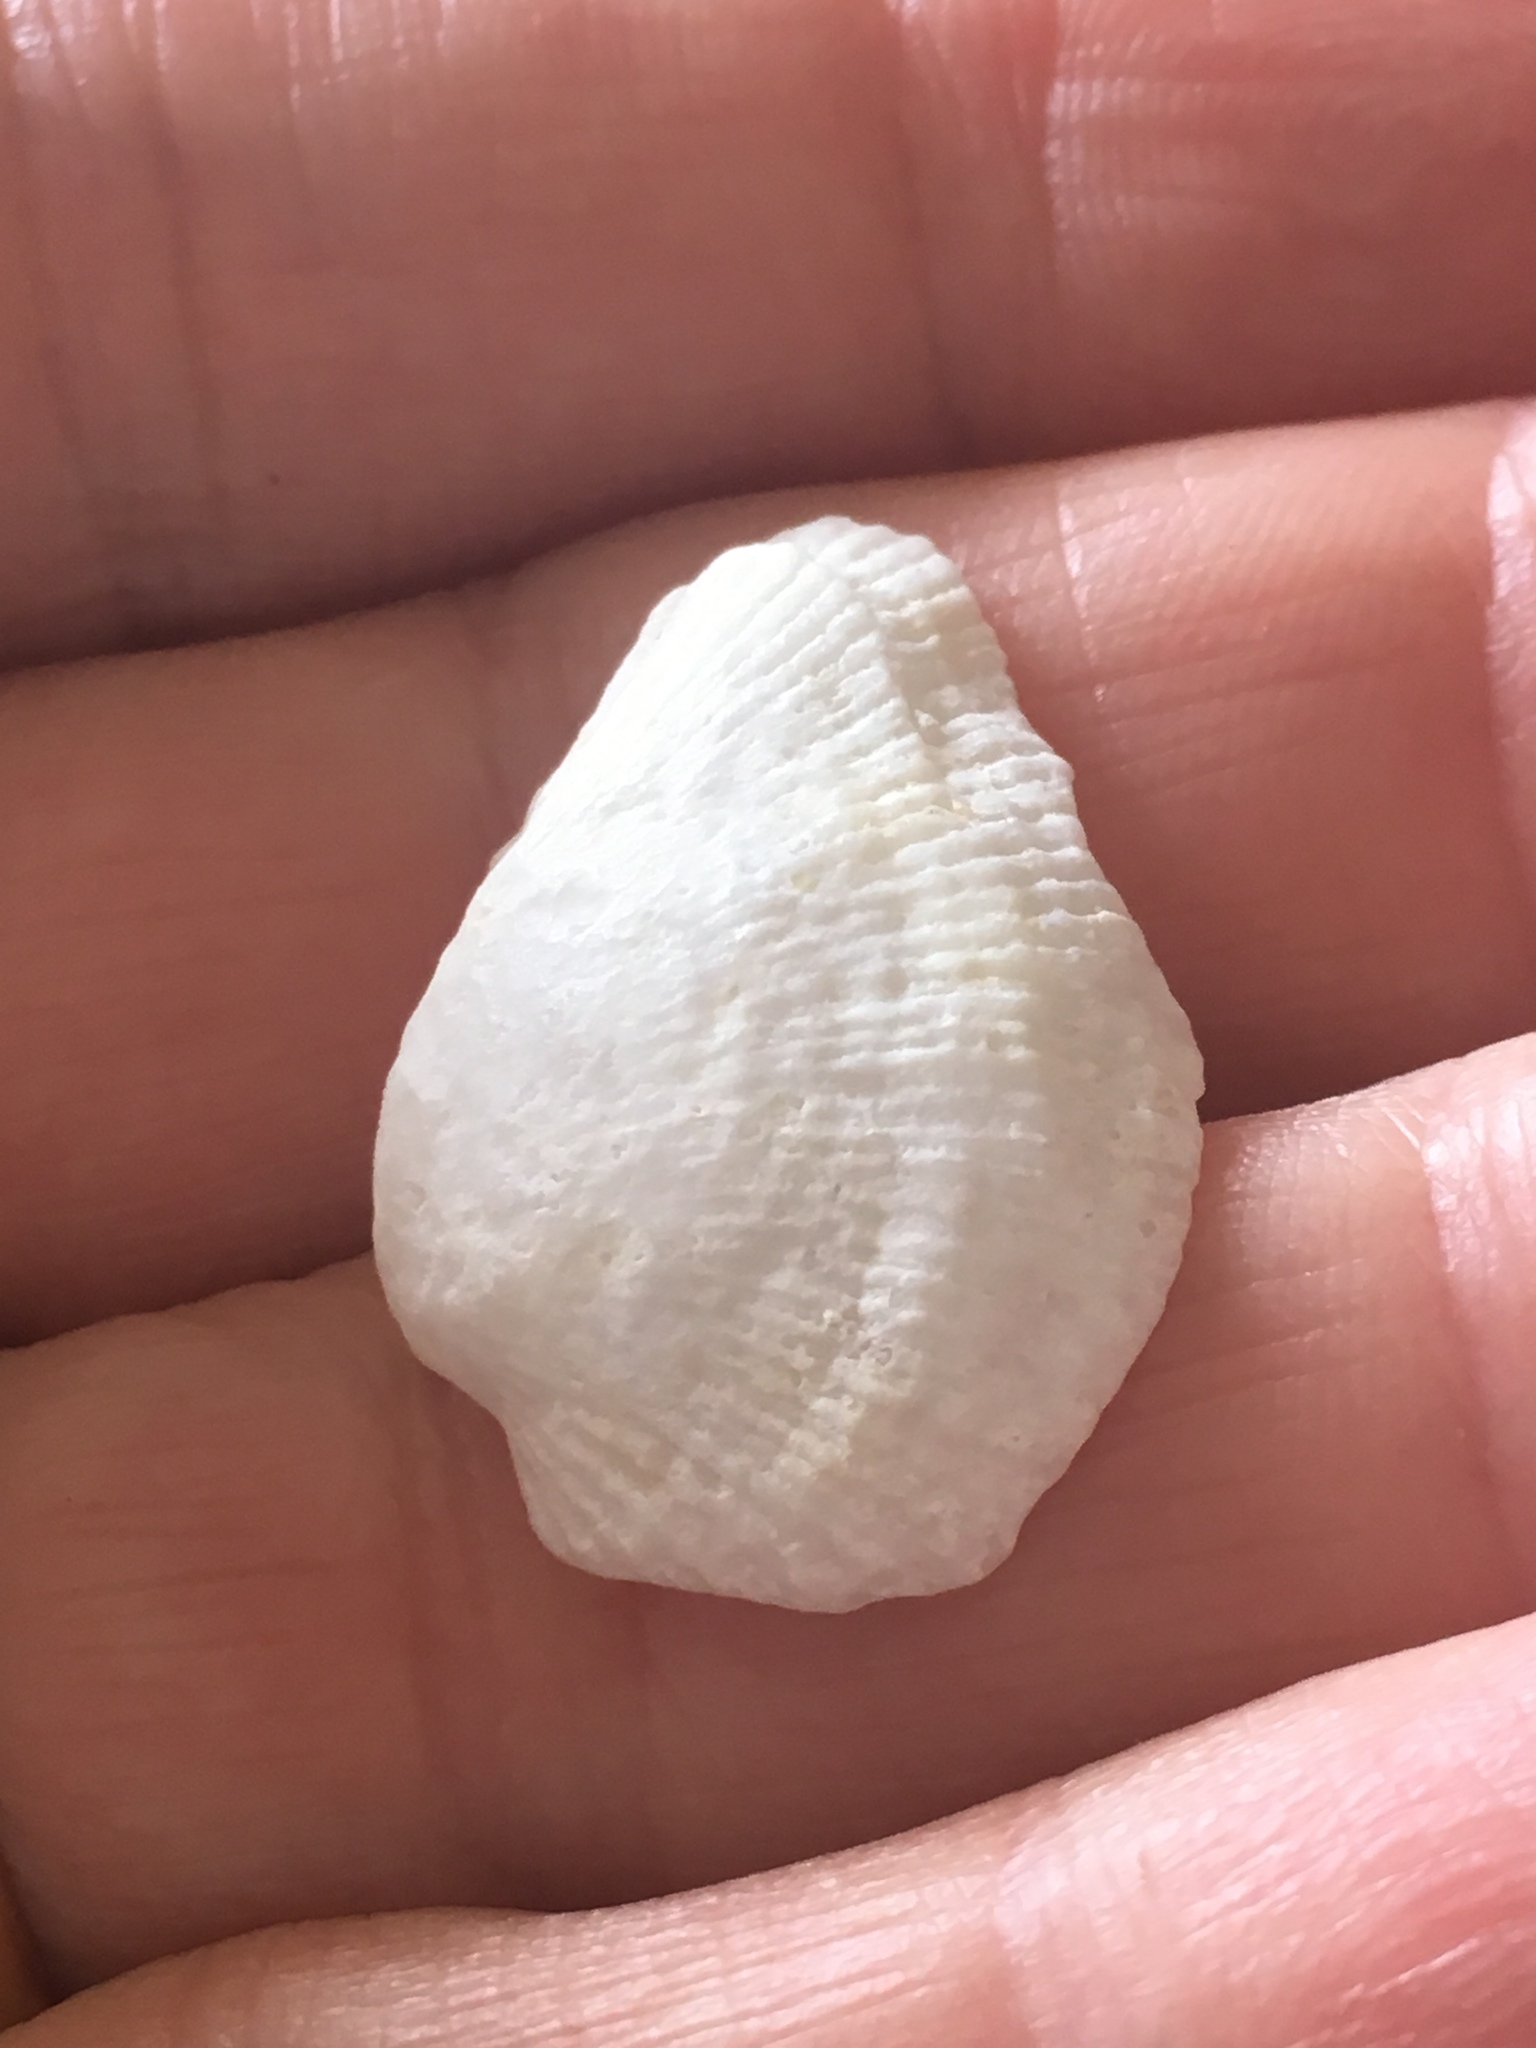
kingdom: Animalia
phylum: Mollusca
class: Bivalvia
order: Arcida
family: Arcidae
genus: Barbatia
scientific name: Barbatia candida
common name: White-beard ark
